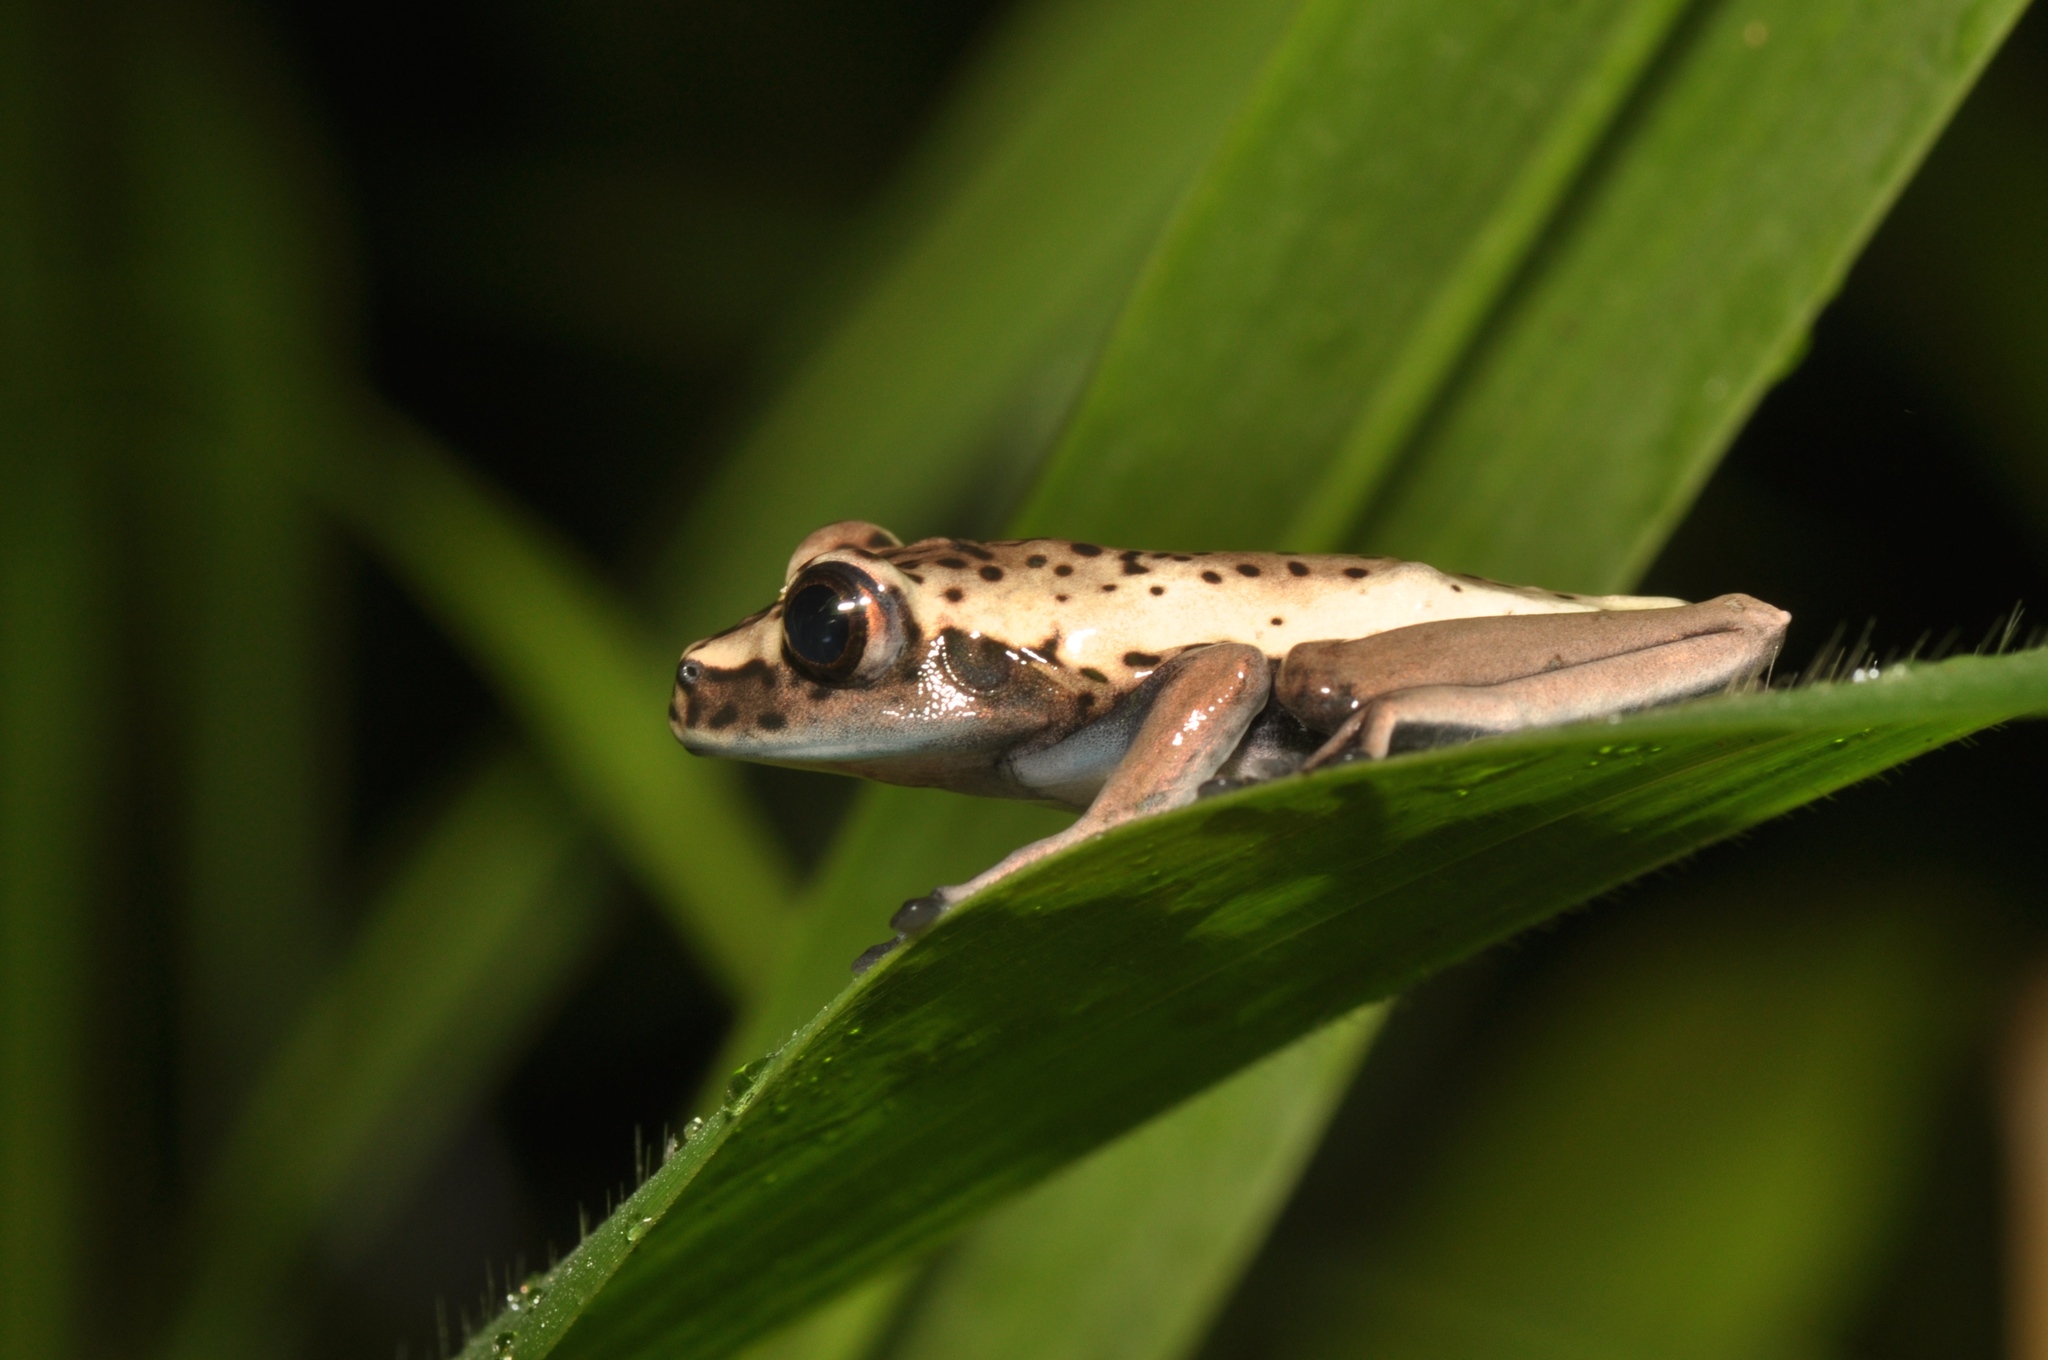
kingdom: Animalia
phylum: Chordata
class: Amphibia
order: Anura
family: Hylidae
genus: Boana
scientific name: Boana appendiculata
